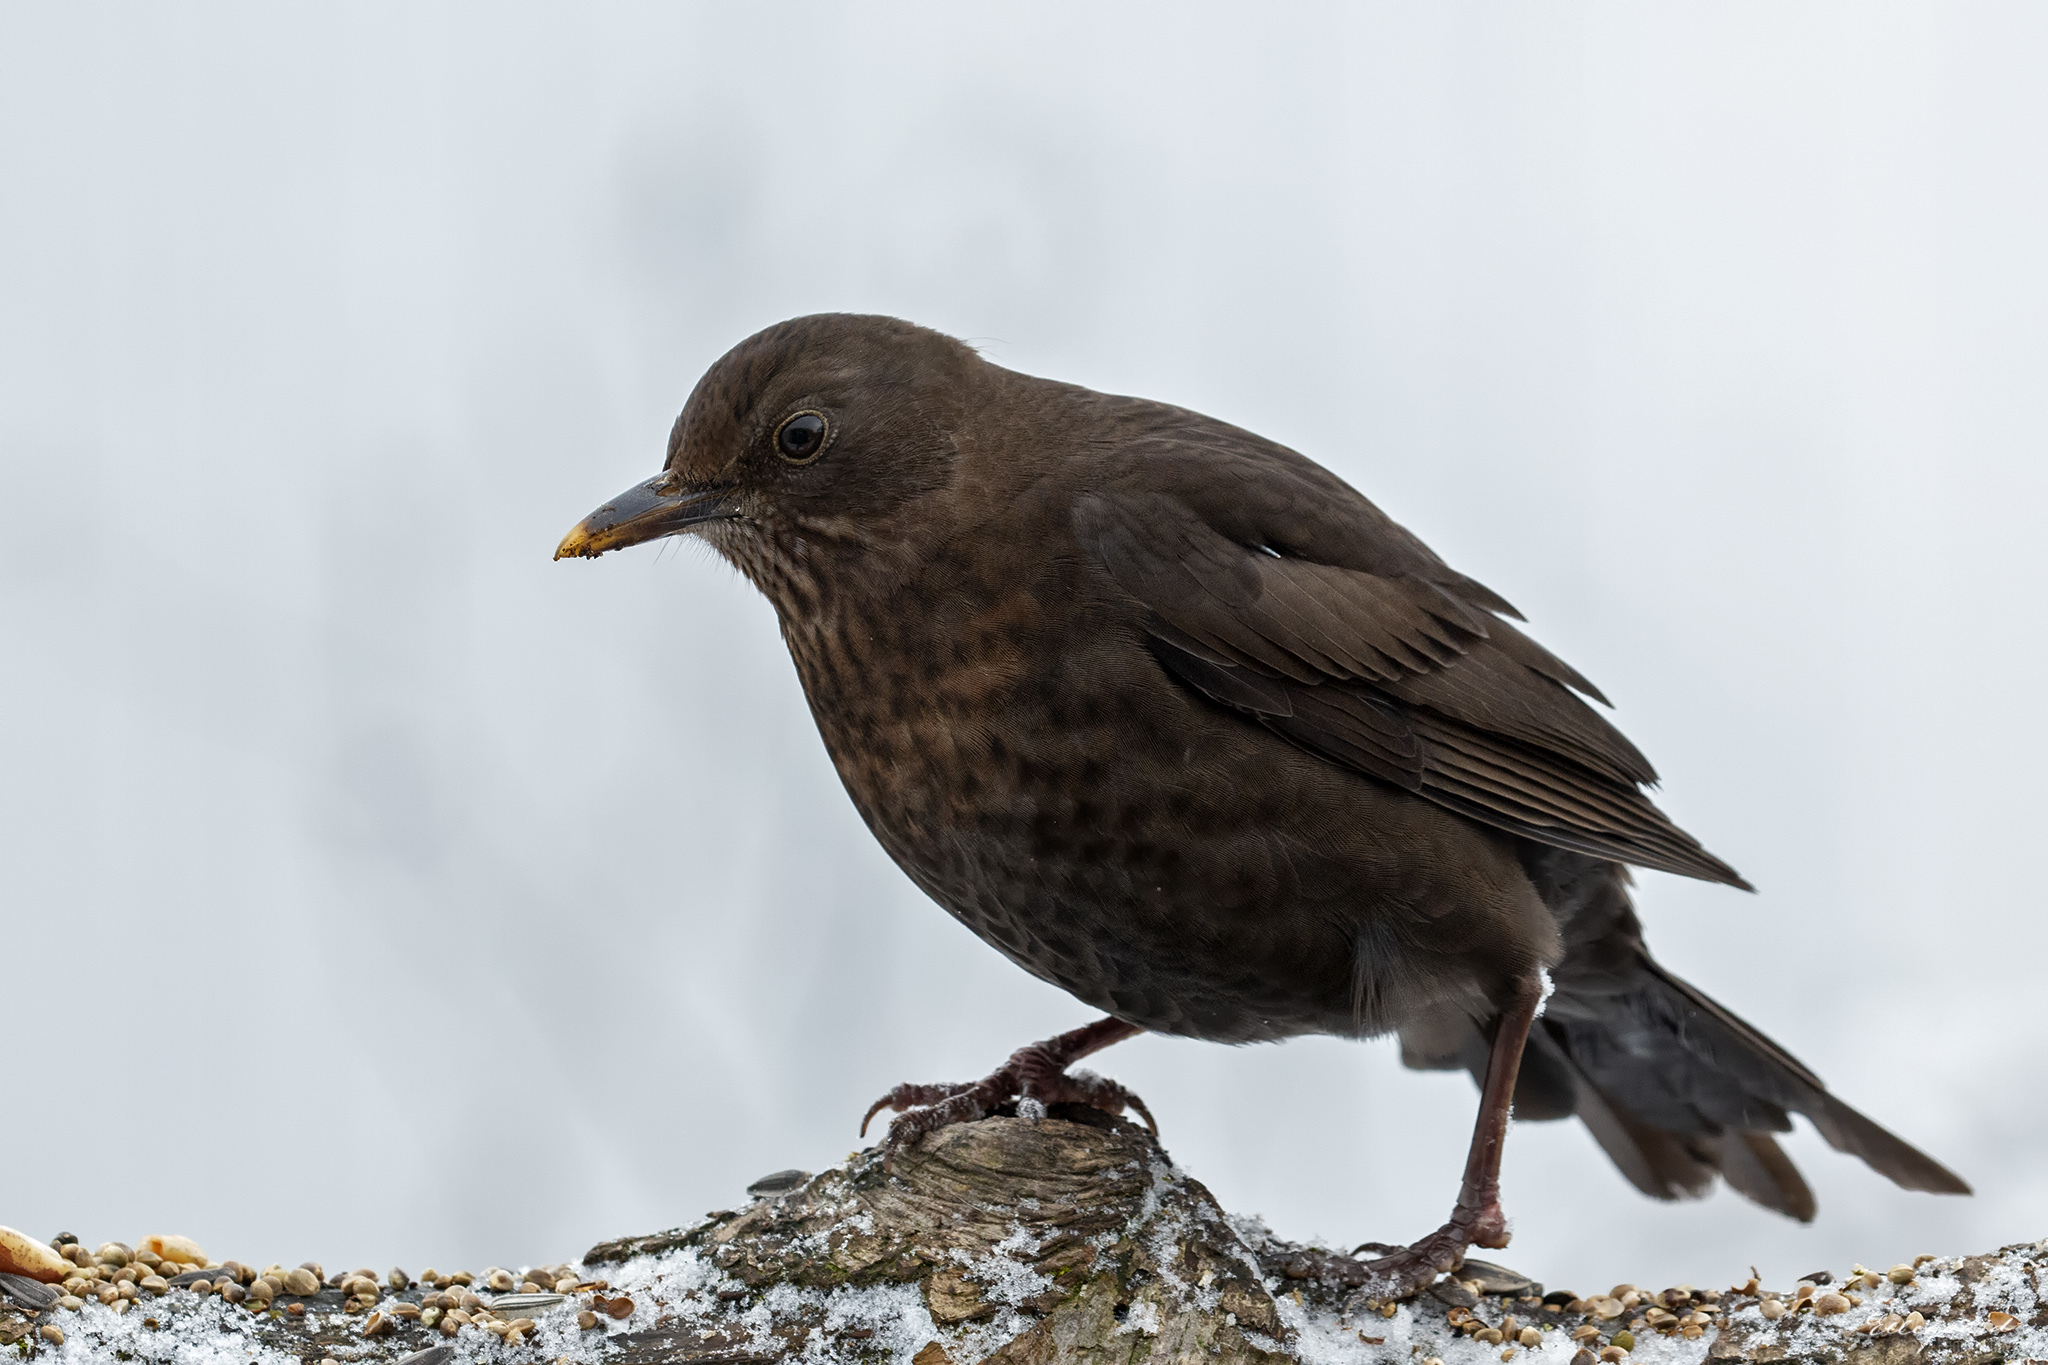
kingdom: Animalia
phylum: Chordata
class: Aves
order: Passeriformes
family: Turdidae
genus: Turdus
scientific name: Turdus merula
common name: Common blackbird
